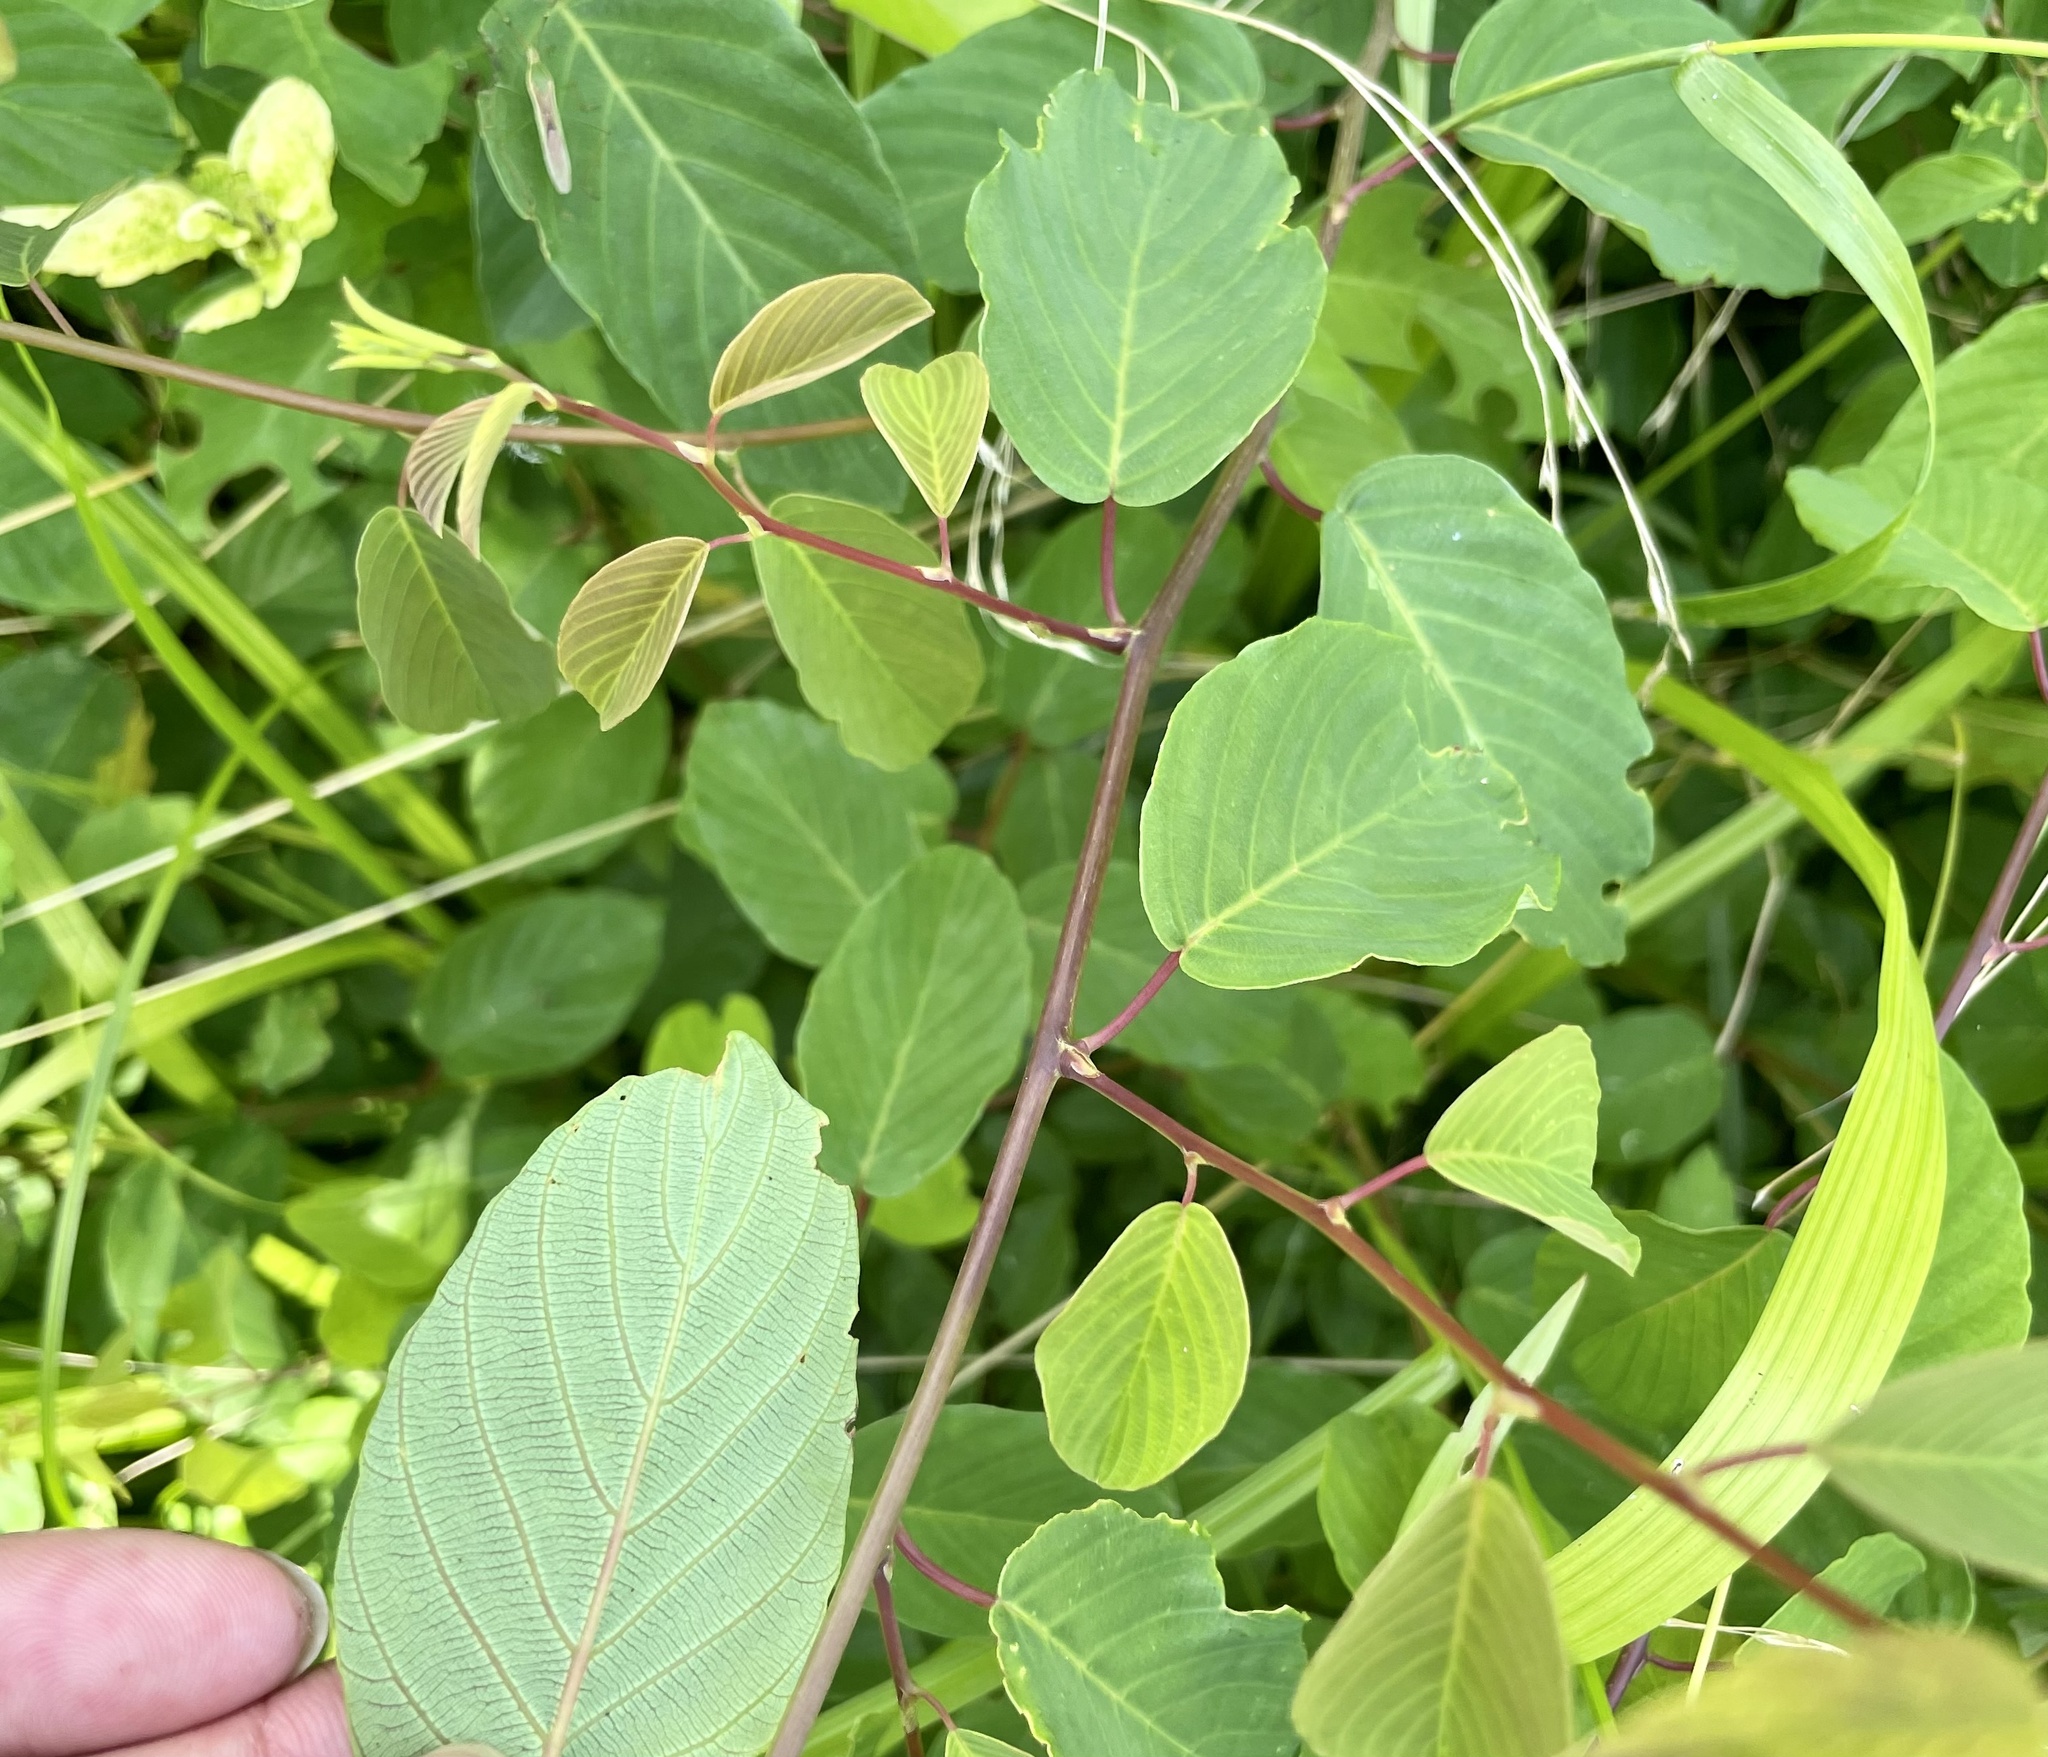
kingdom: Plantae
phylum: Tracheophyta
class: Magnoliopsida
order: Rosales
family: Rhamnaceae
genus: Berchemia
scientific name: Berchemia floribunda
